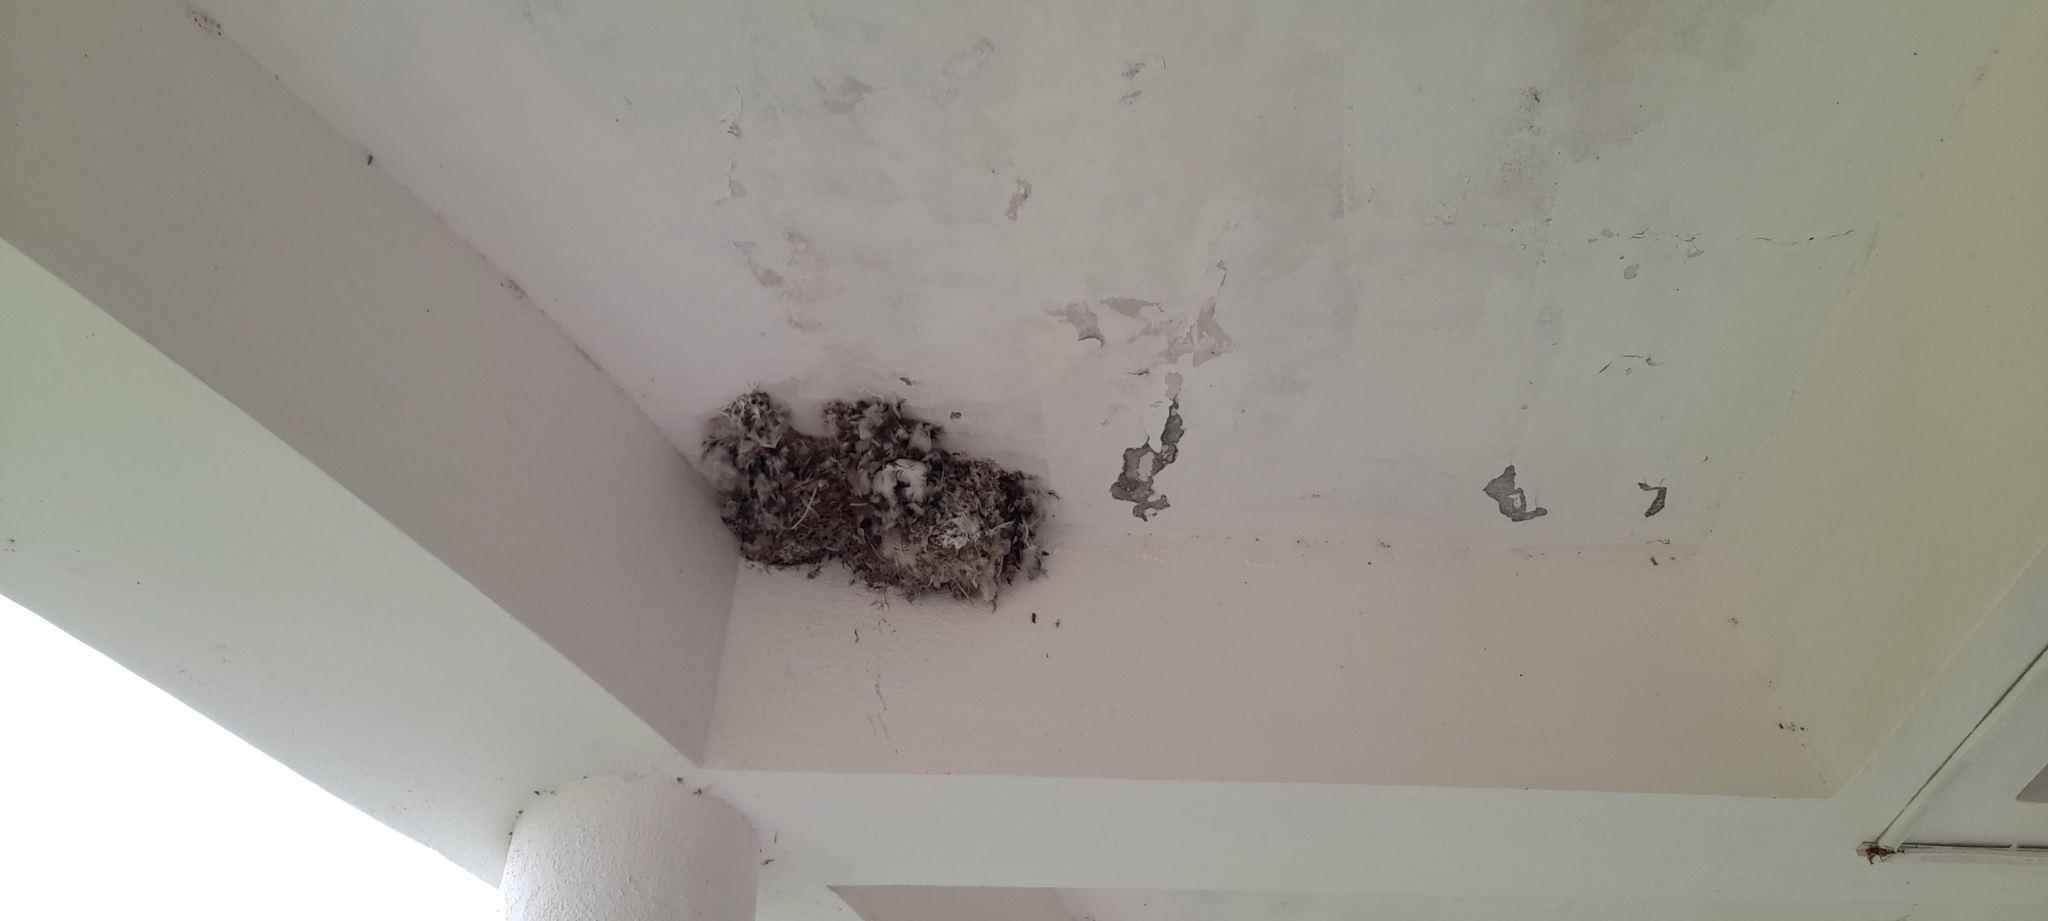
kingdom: Animalia
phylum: Chordata
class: Aves
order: Apodiformes
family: Apodidae
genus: Apus
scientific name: Apus affinis
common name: Little swift
